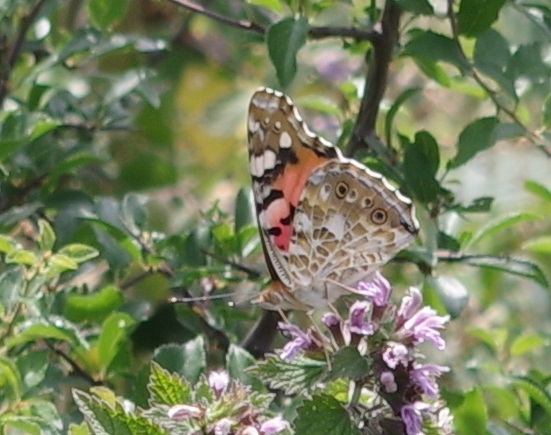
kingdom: Animalia
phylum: Arthropoda
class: Insecta
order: Lepidoptera
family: Nymphalidae
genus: Vanessa
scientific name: Vanessa cardui
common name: Painted lady
